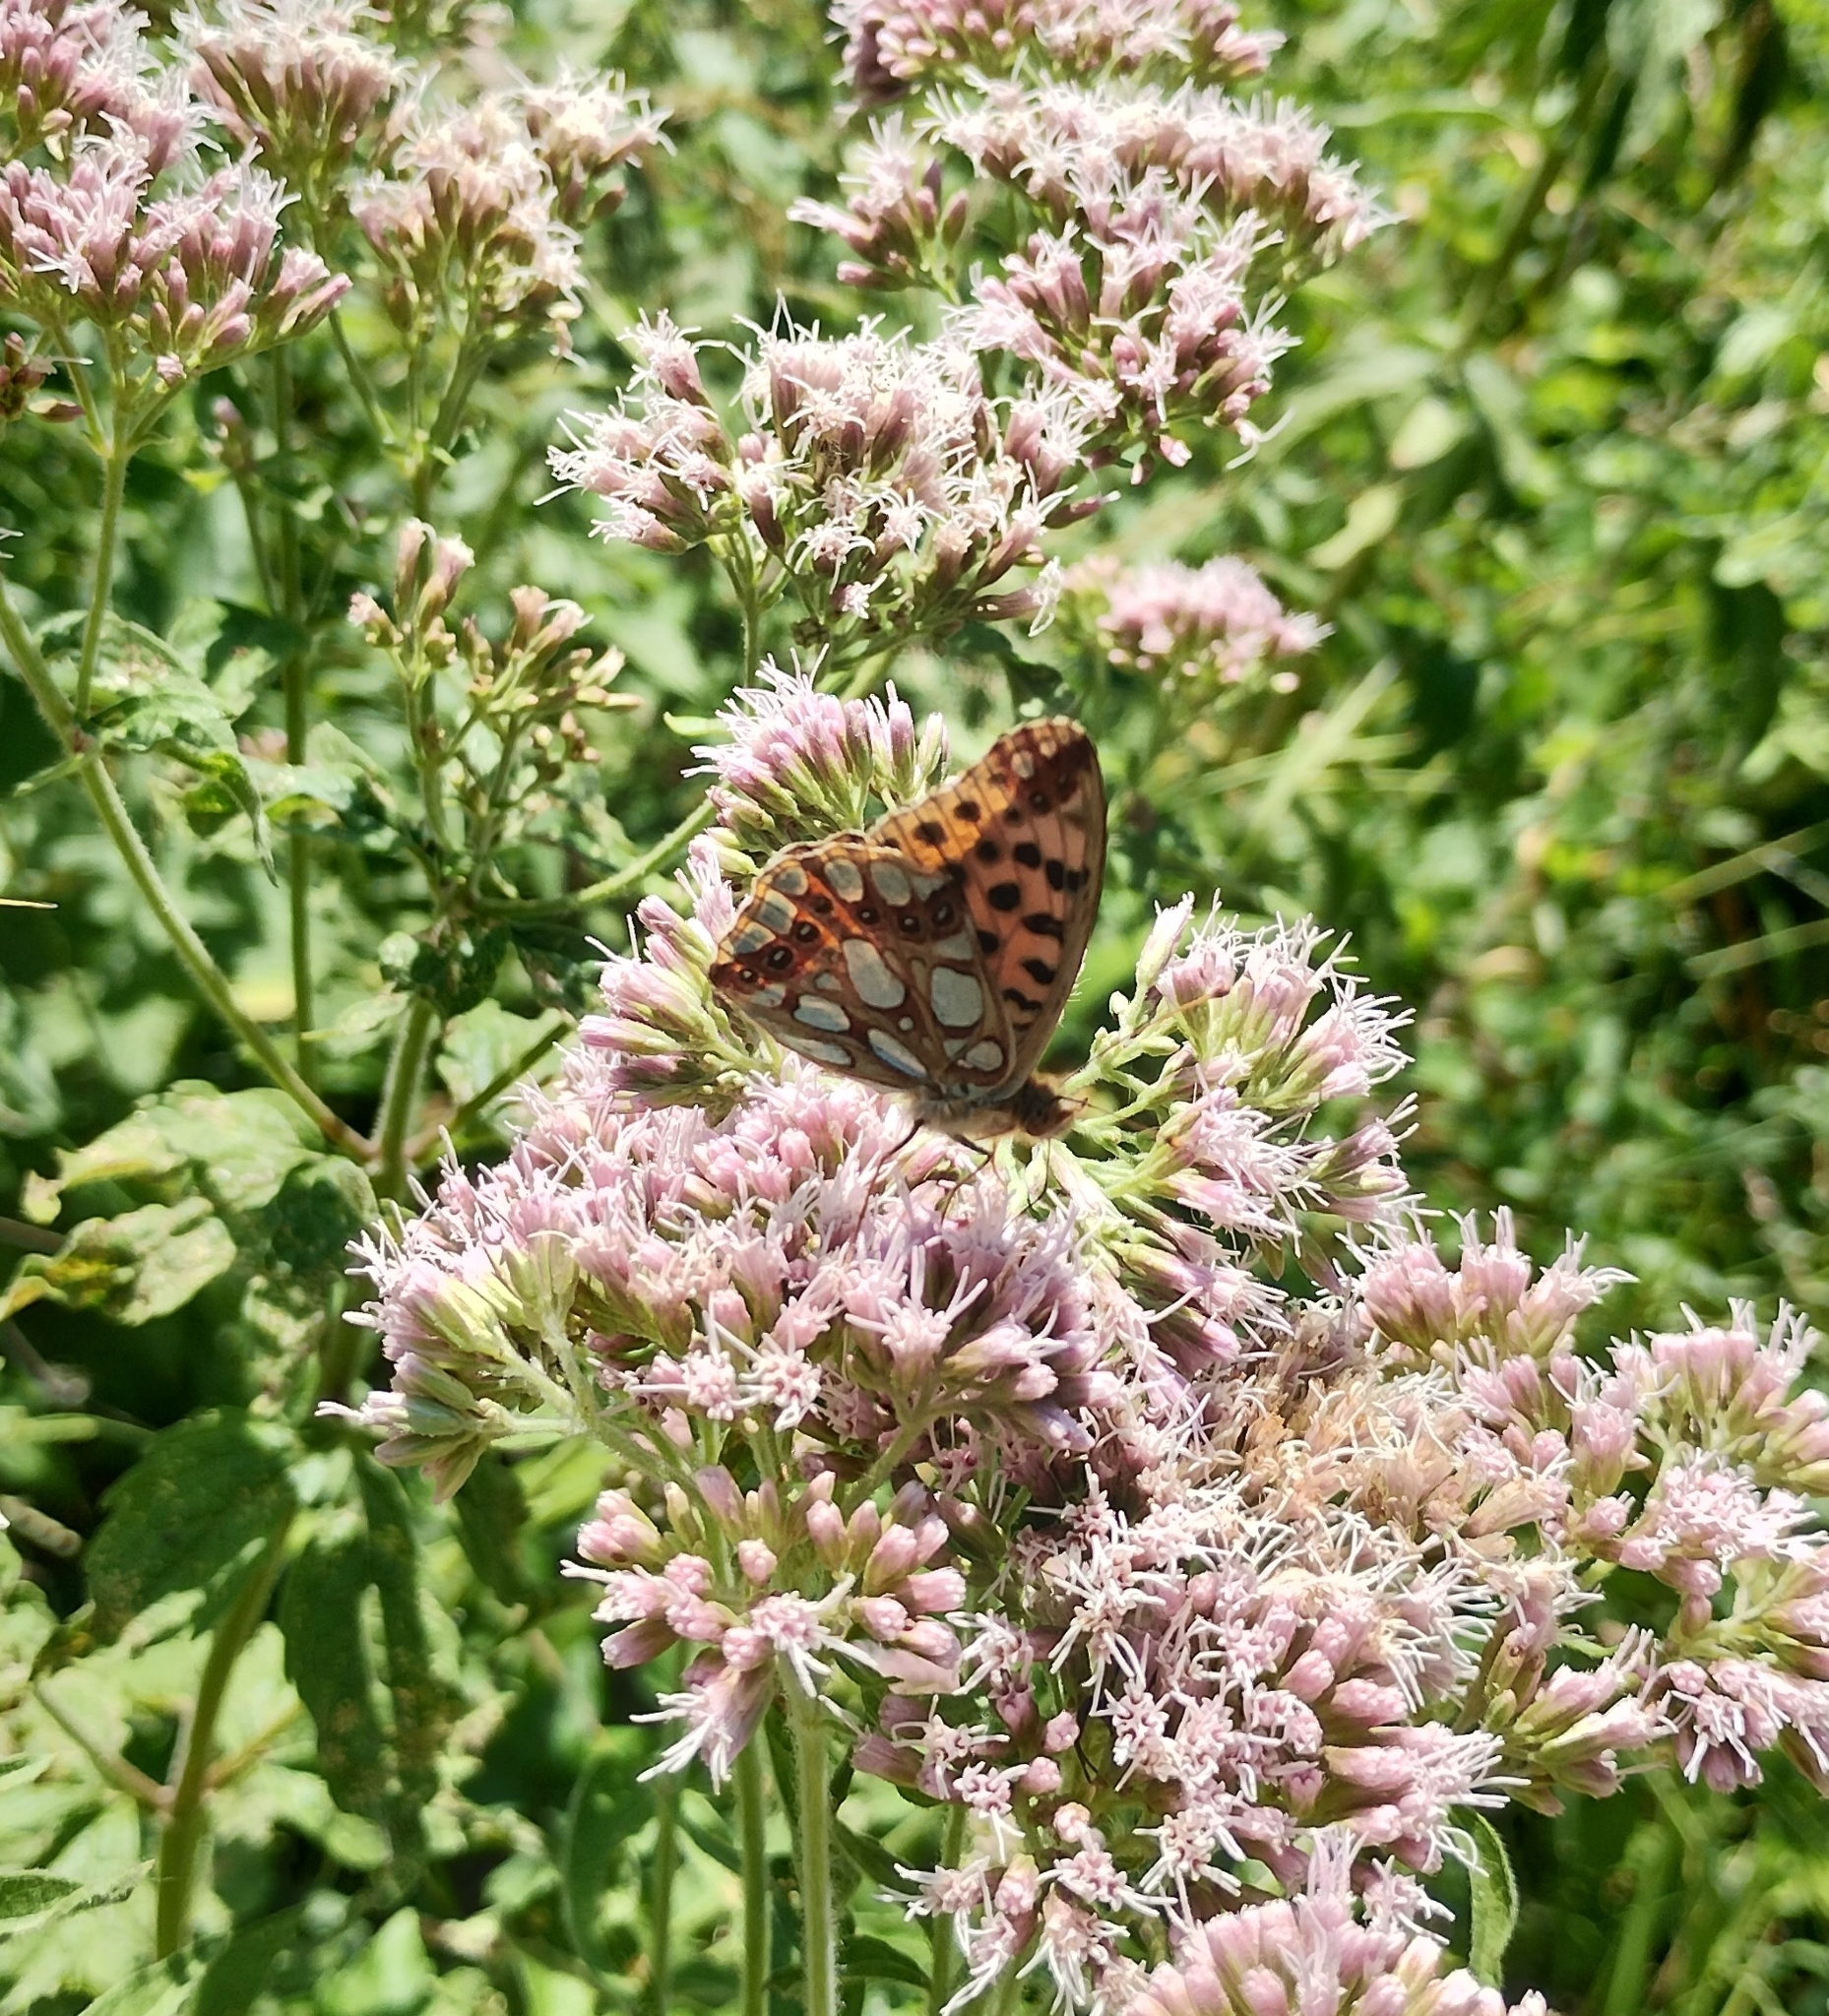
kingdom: Animalia
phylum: Arthropoda
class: Insecta
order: Lepidoptera
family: Nymphalidae
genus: Issoria
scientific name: Issoria lathonia
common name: Queen of spain fritillary
